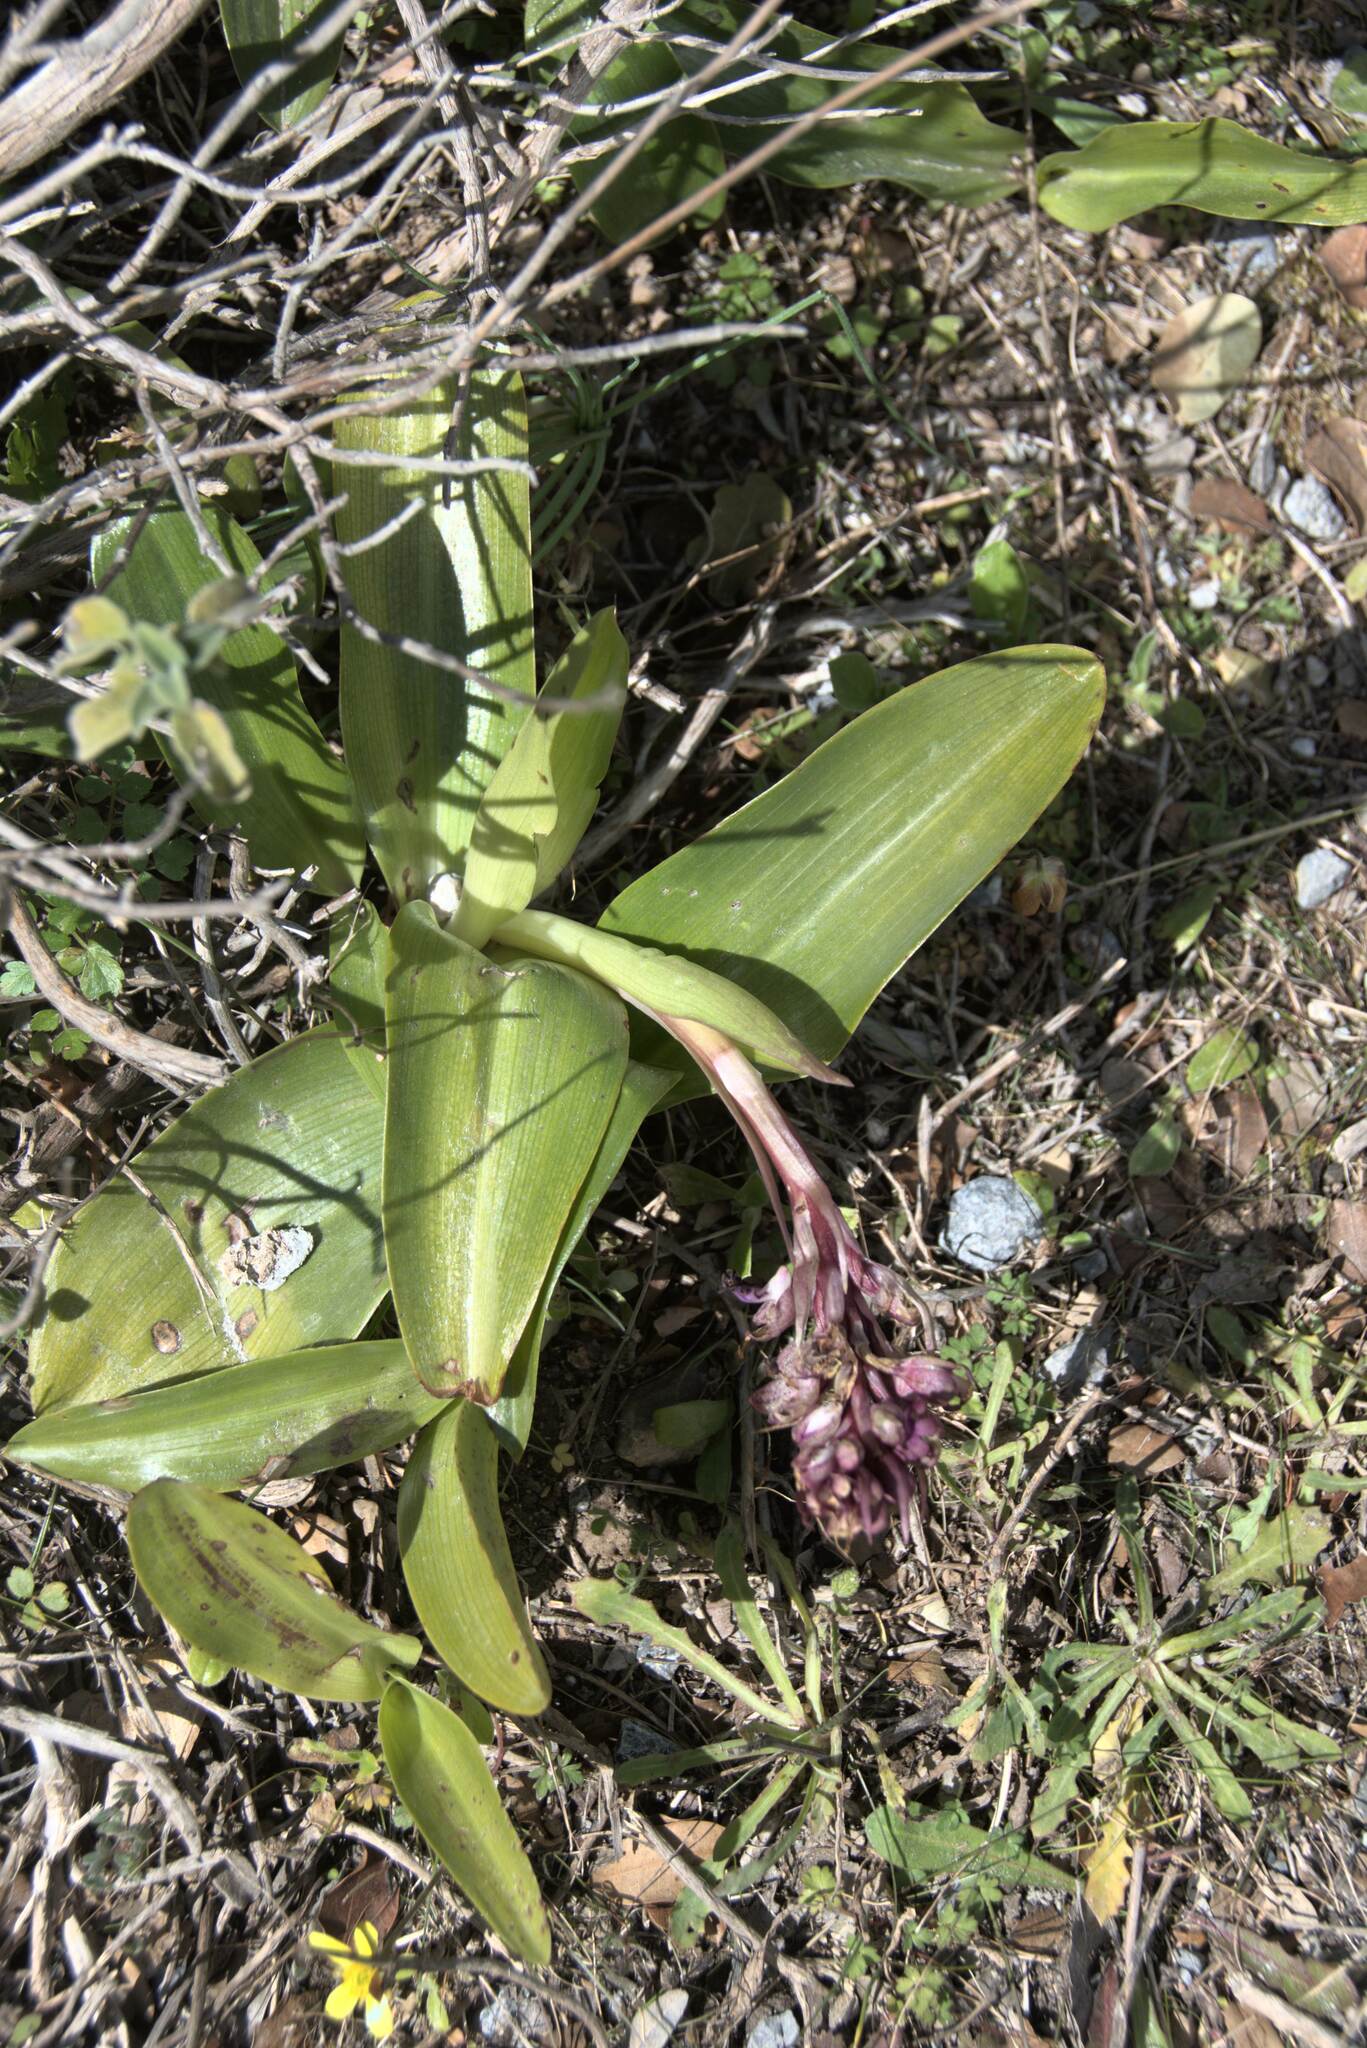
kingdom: Plantae
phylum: Tracheophyta
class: Liliopsida
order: Asparagales
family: Orchidaceae
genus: Himantoglossum
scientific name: Himantoglossum robertianum
